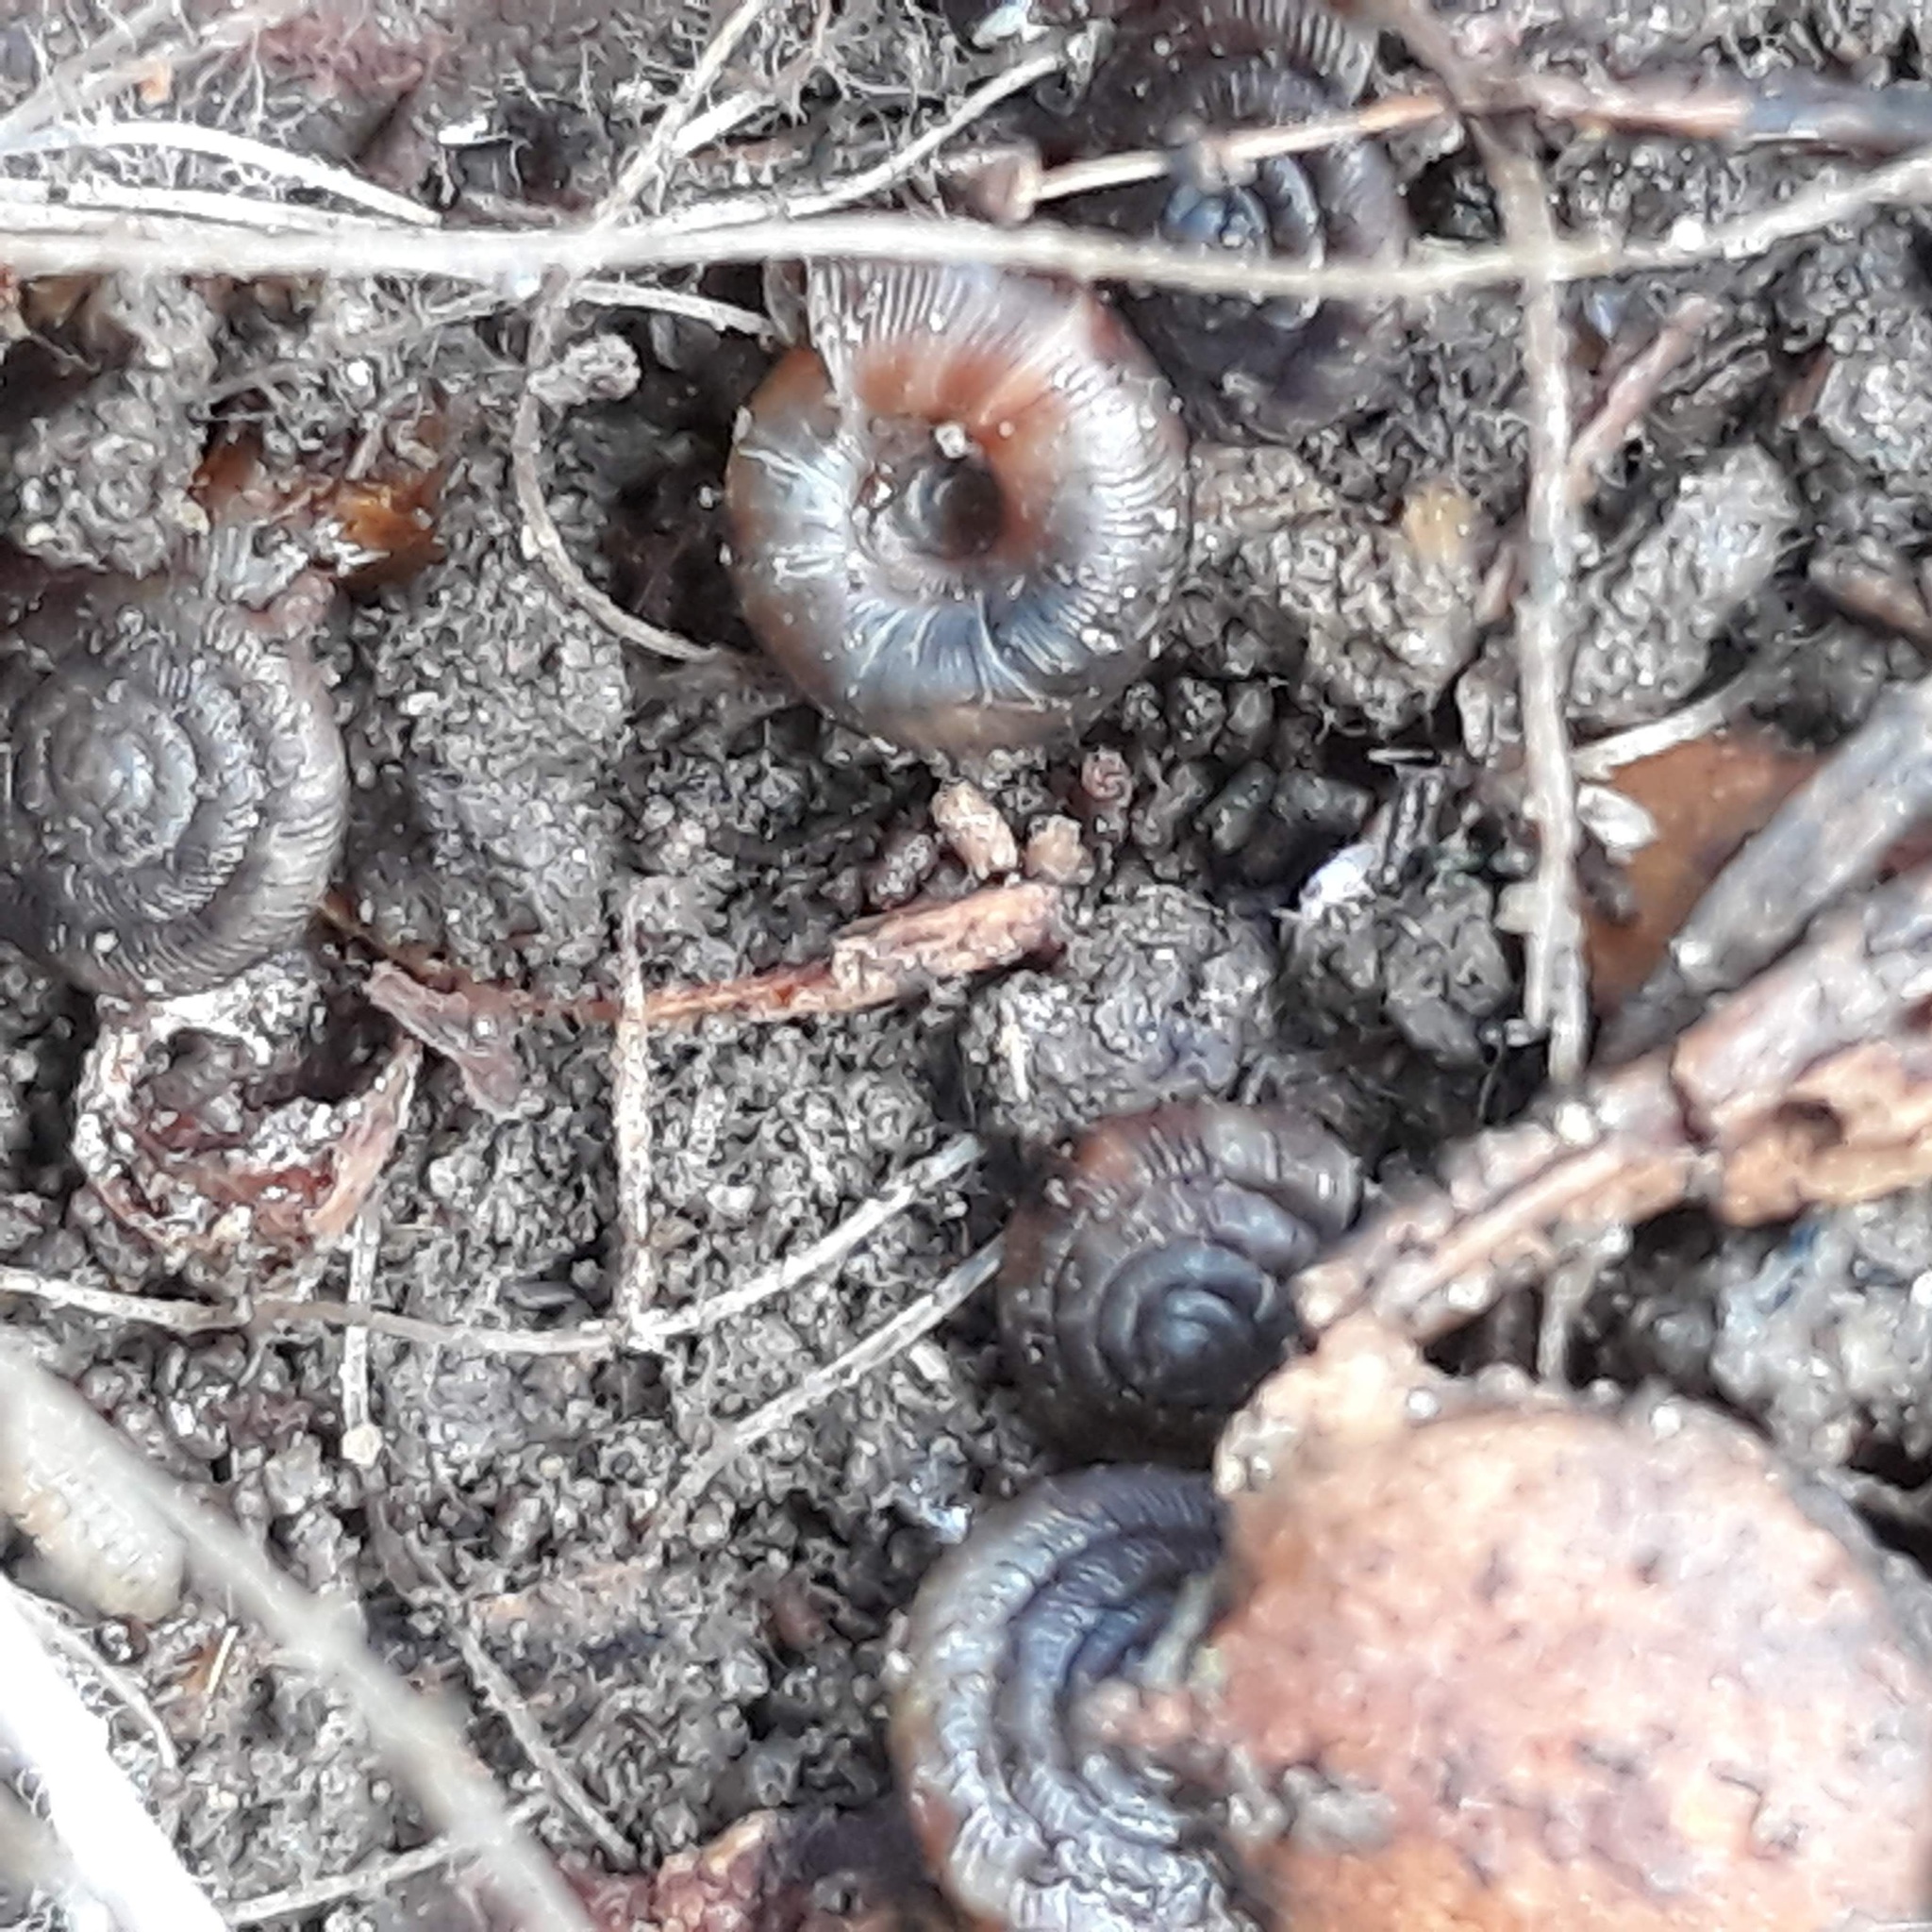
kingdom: Animalia
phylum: Mollusca
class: Gastropoda
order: Stylommatophora
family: Discidae
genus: Discus
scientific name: Discus rotundatus
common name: Rounded snail
